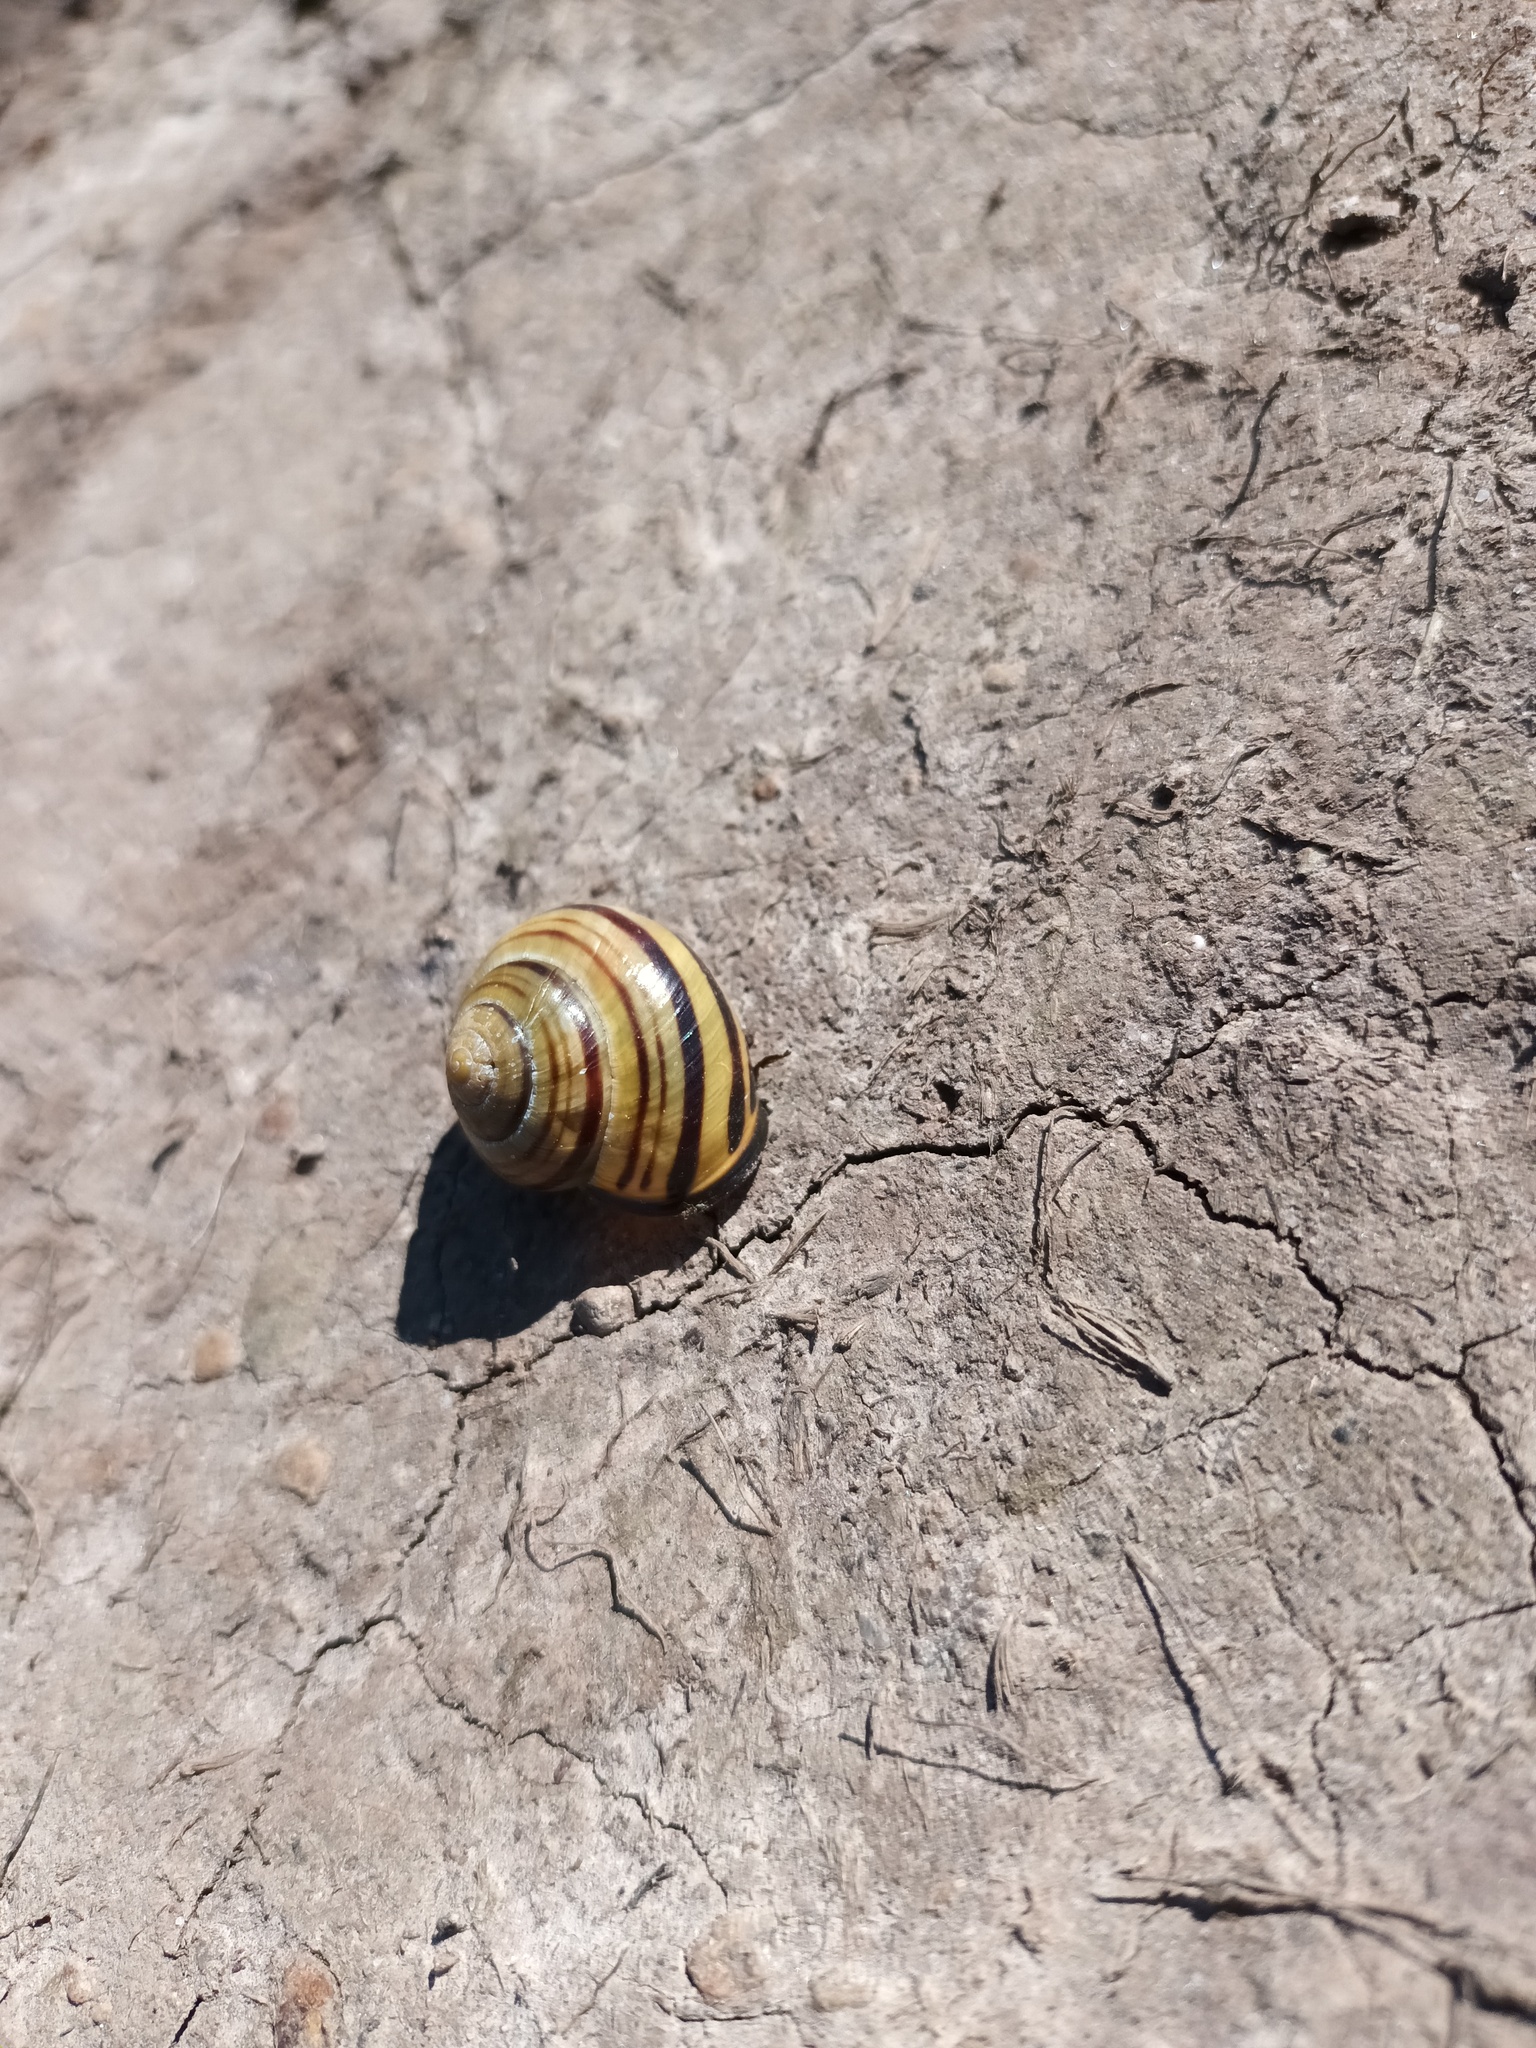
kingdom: Animalia
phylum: Mollusca
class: Gastropoda
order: Stylommatophora
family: Helicidae
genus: Cepaea
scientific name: Cepaea nemoralis
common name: Grovesnail
